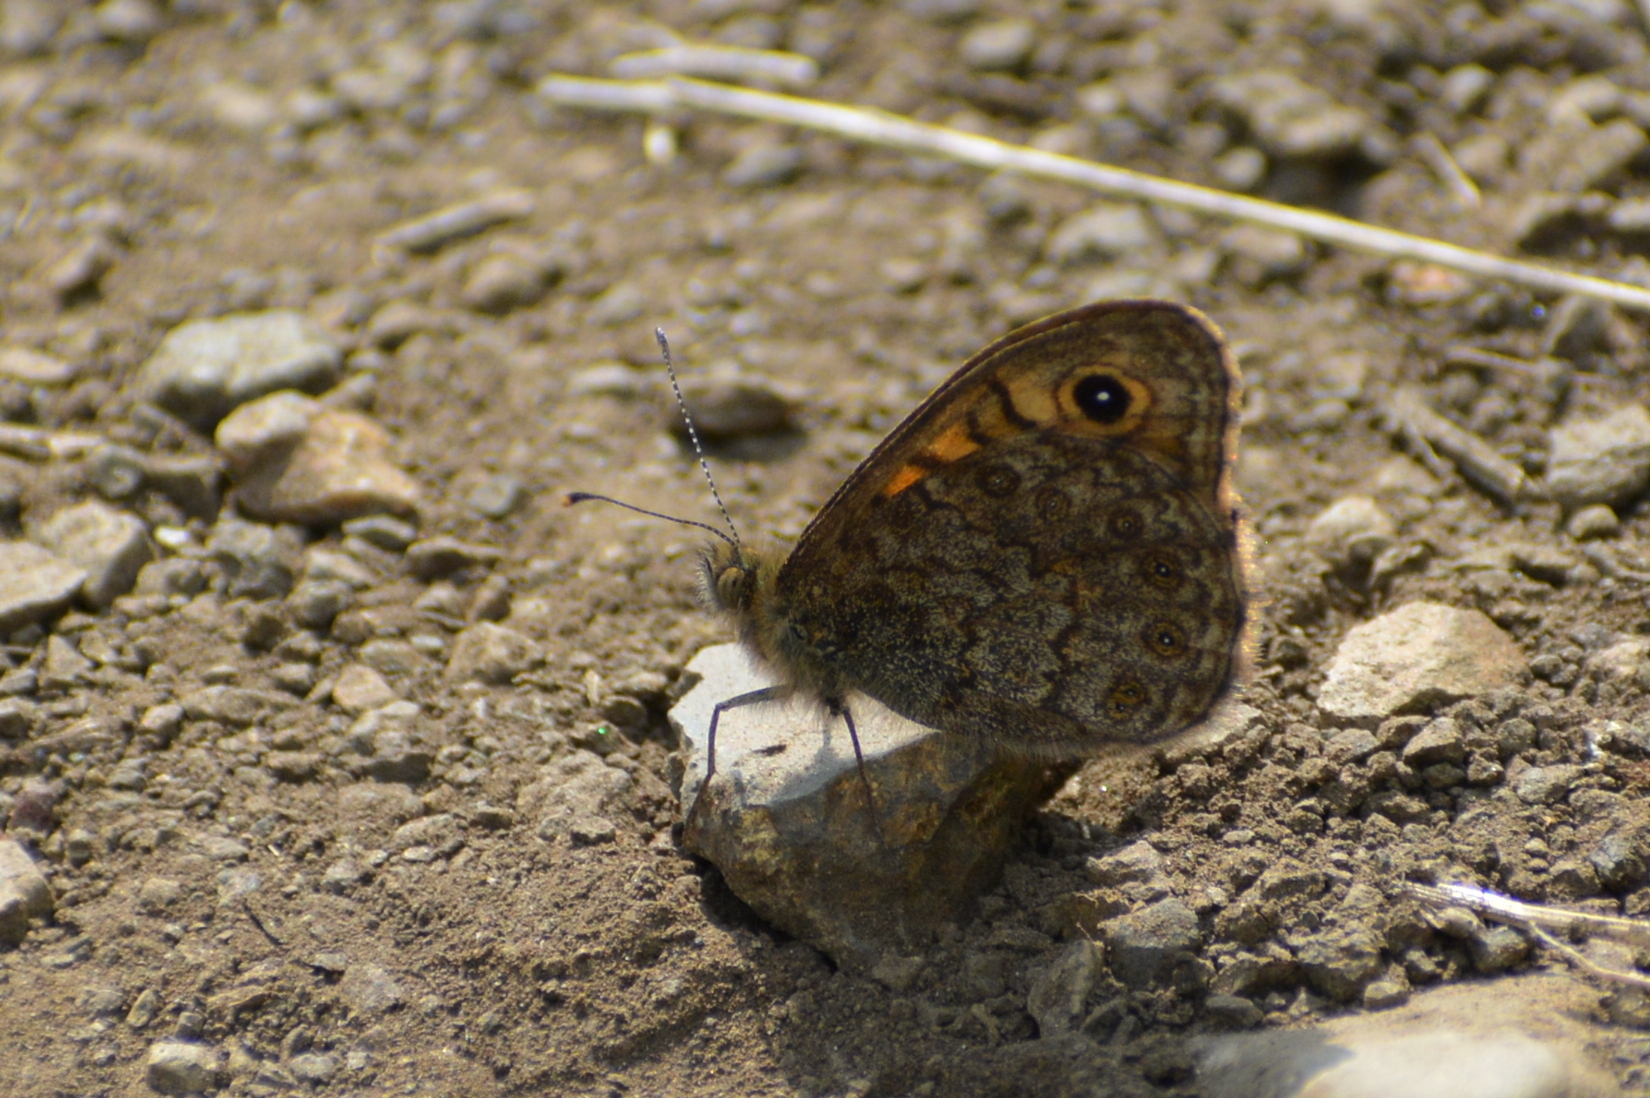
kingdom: Animalia
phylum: Arthropoda
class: Insecta
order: Lepidoptera
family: Nymphalidae
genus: Pararge
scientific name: Pararge Lasiommata megera
